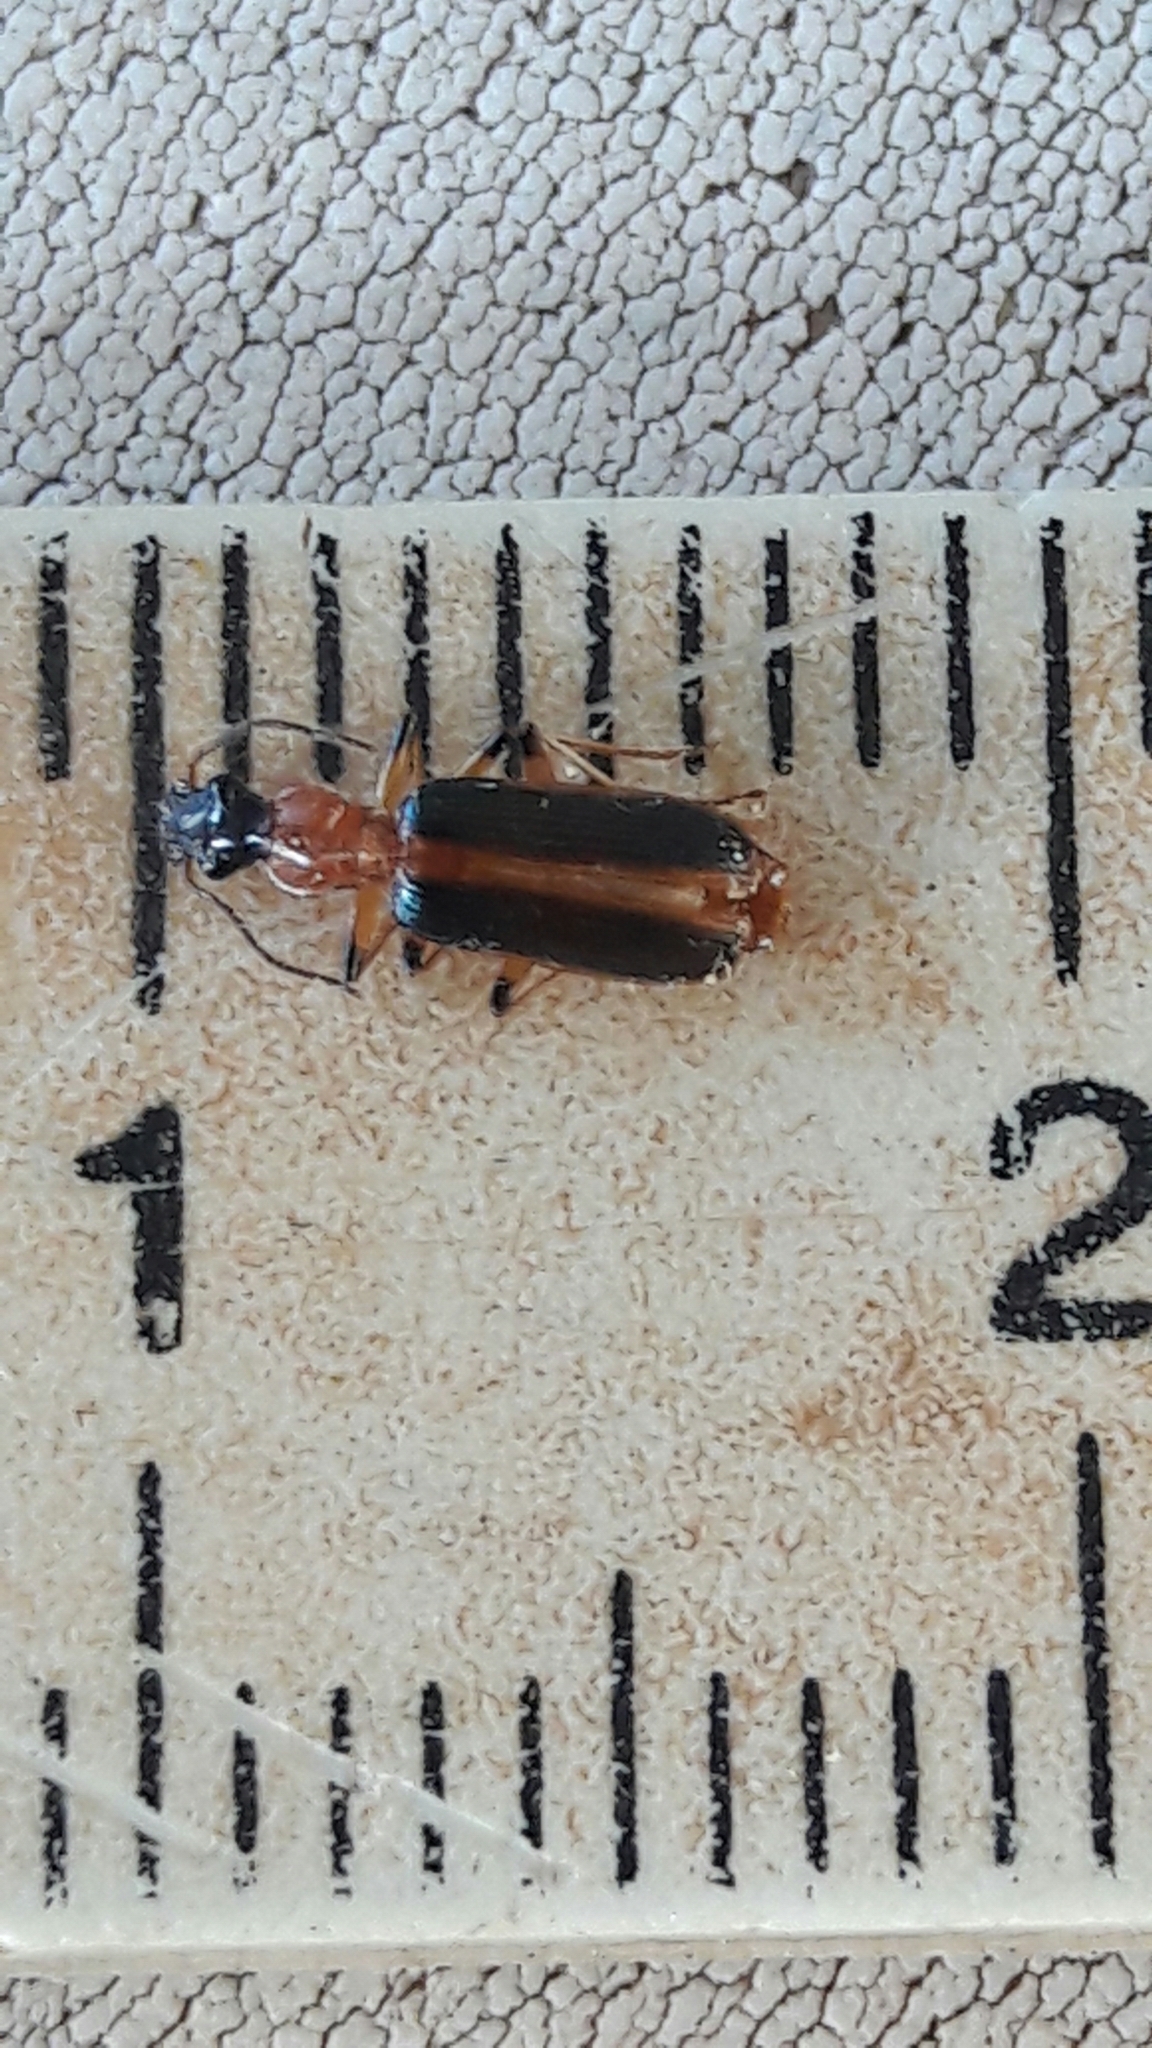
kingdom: Animalia
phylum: Arthropoda
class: Insecta
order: Coleoptera
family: Carabidae
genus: Calleida
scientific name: Calleida suturella
